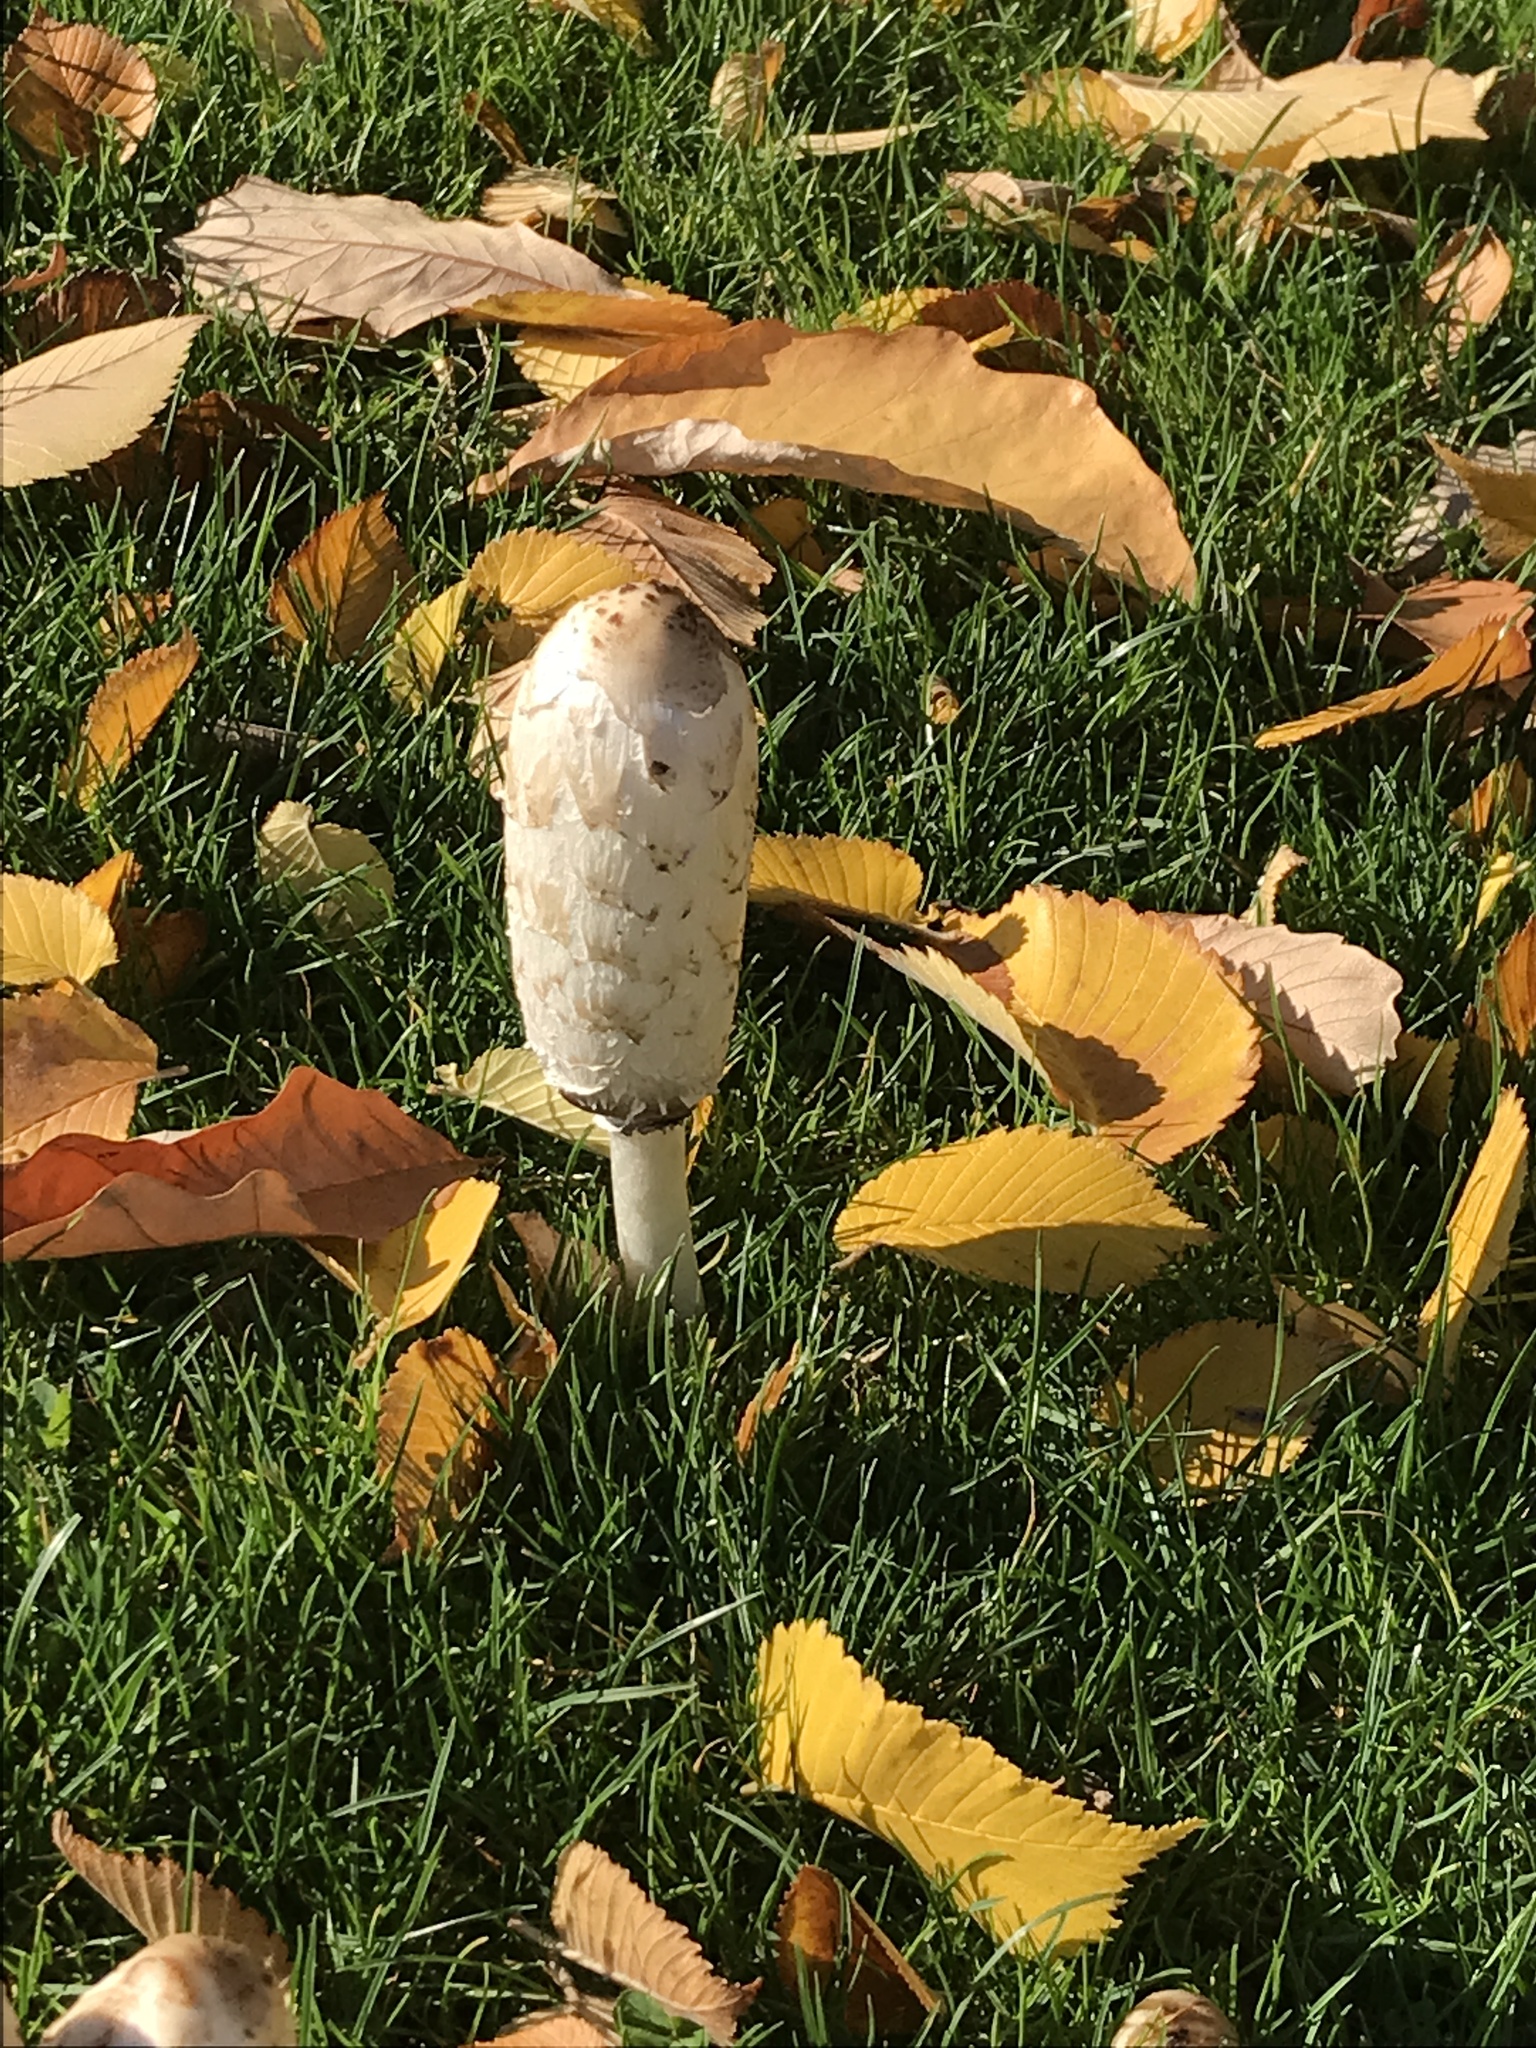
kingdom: Fungi
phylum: Basidiomycota
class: Agaricomycetes
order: Agaricales
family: Agaricaceae
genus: Coprinus
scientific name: Coprinus comatus
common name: Lawyer's wig
